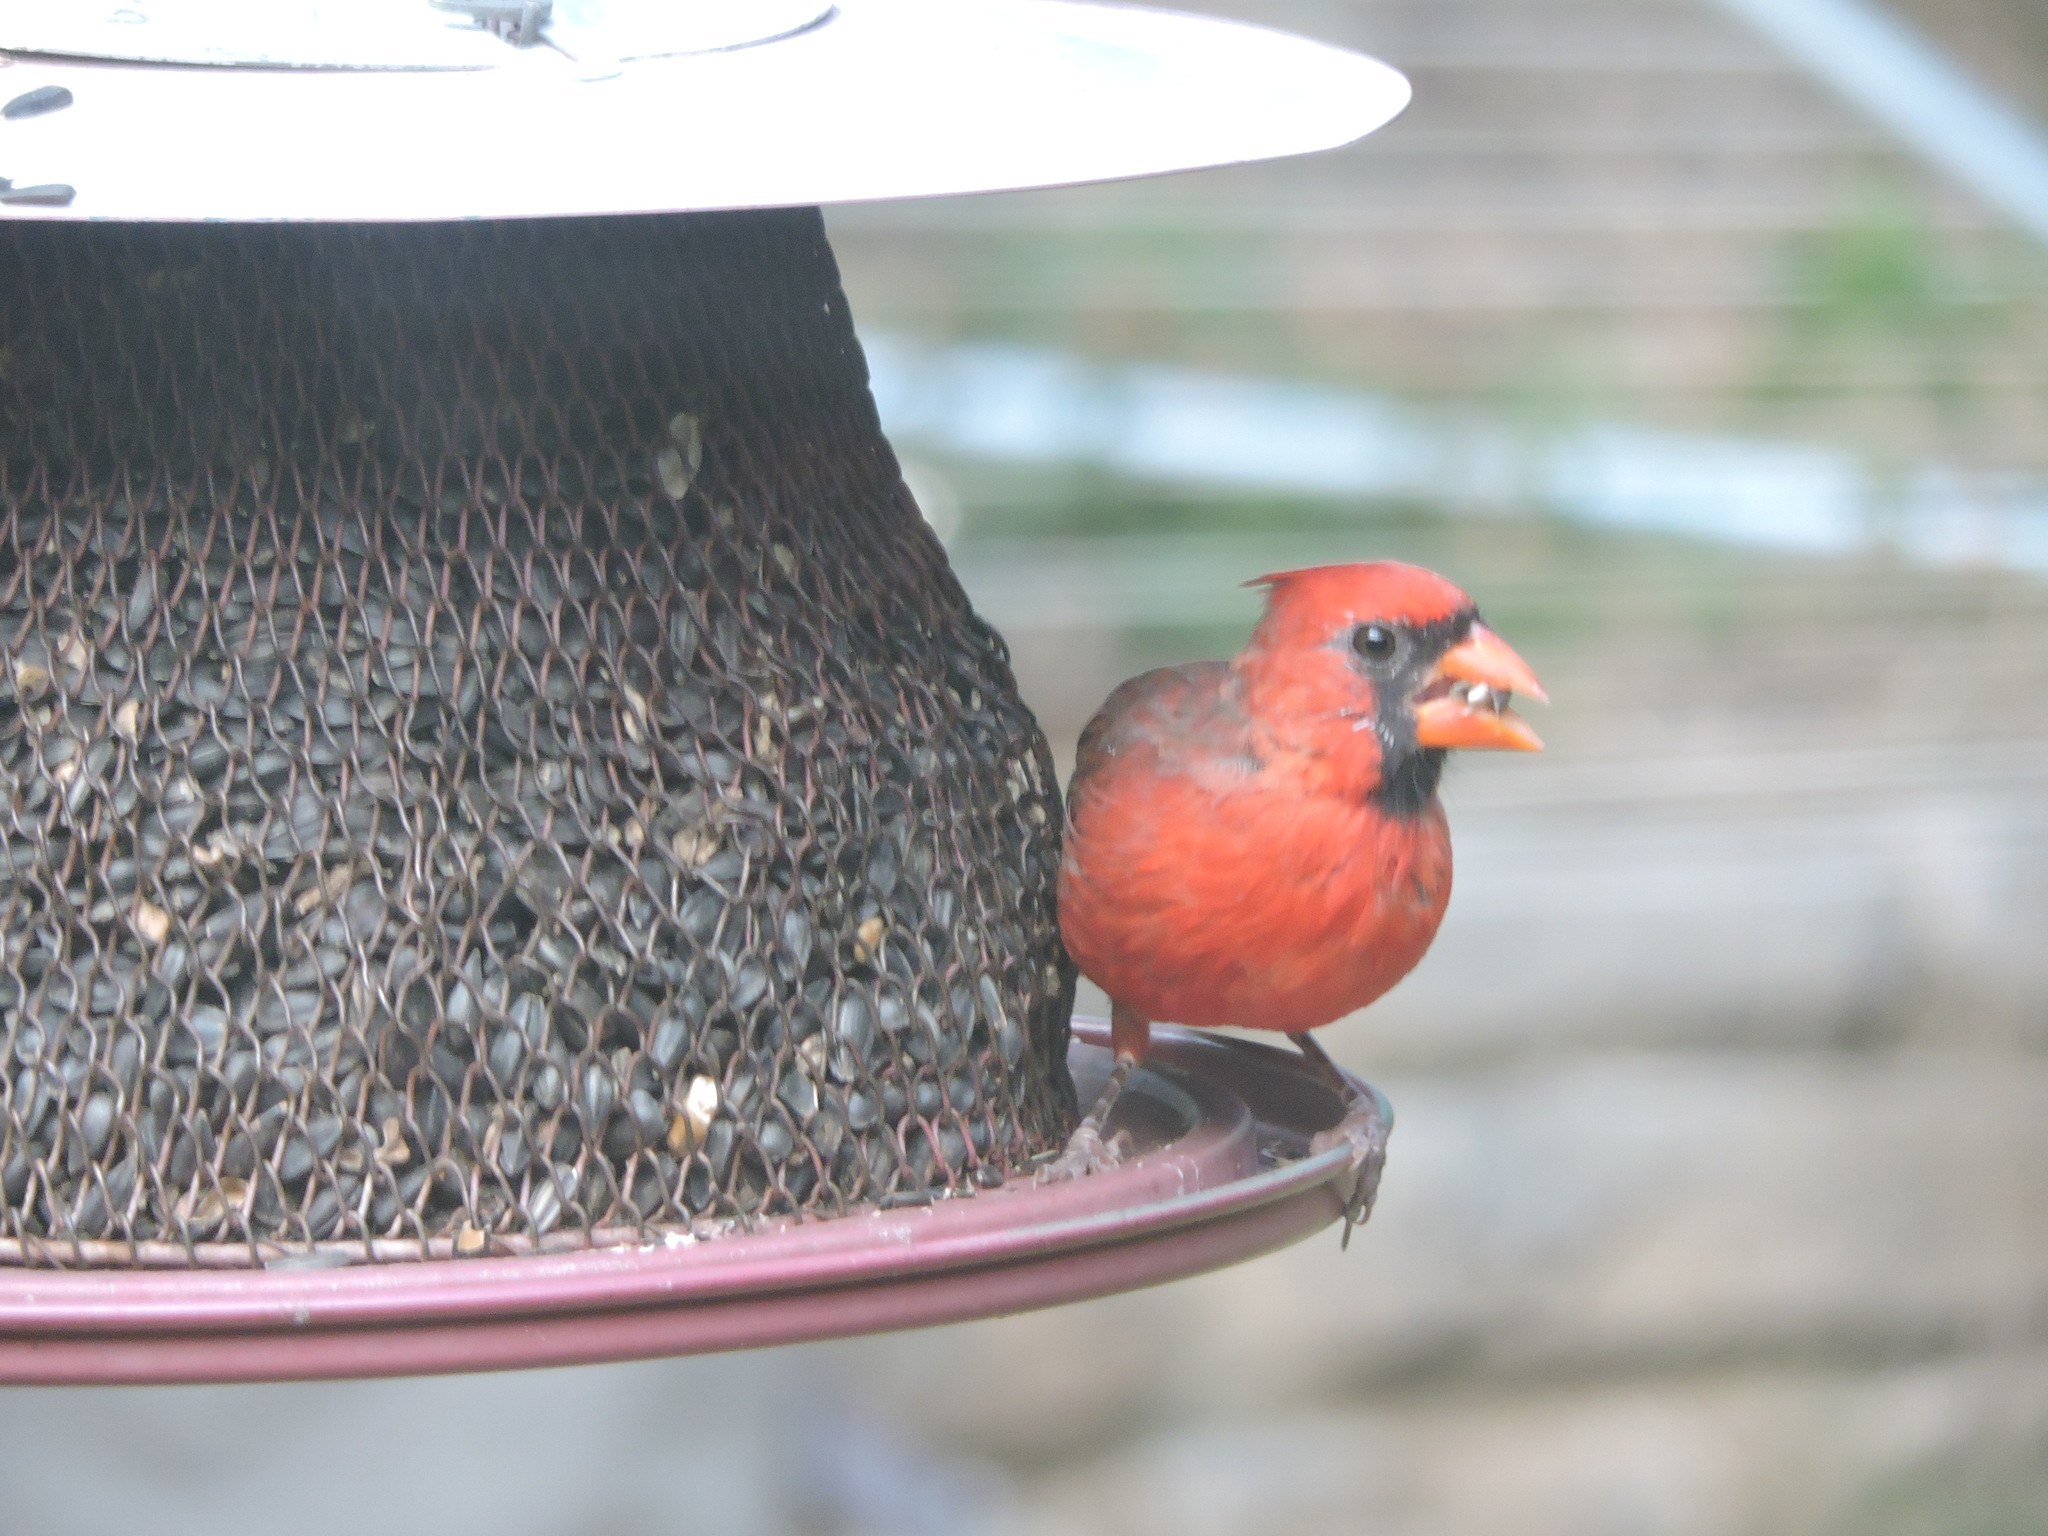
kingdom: Animalia
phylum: Chordata
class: Aves
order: Passeriformes
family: Cardinalidae
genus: Cardinalis
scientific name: Cardinalis cardinalis
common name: Northern cardinal
